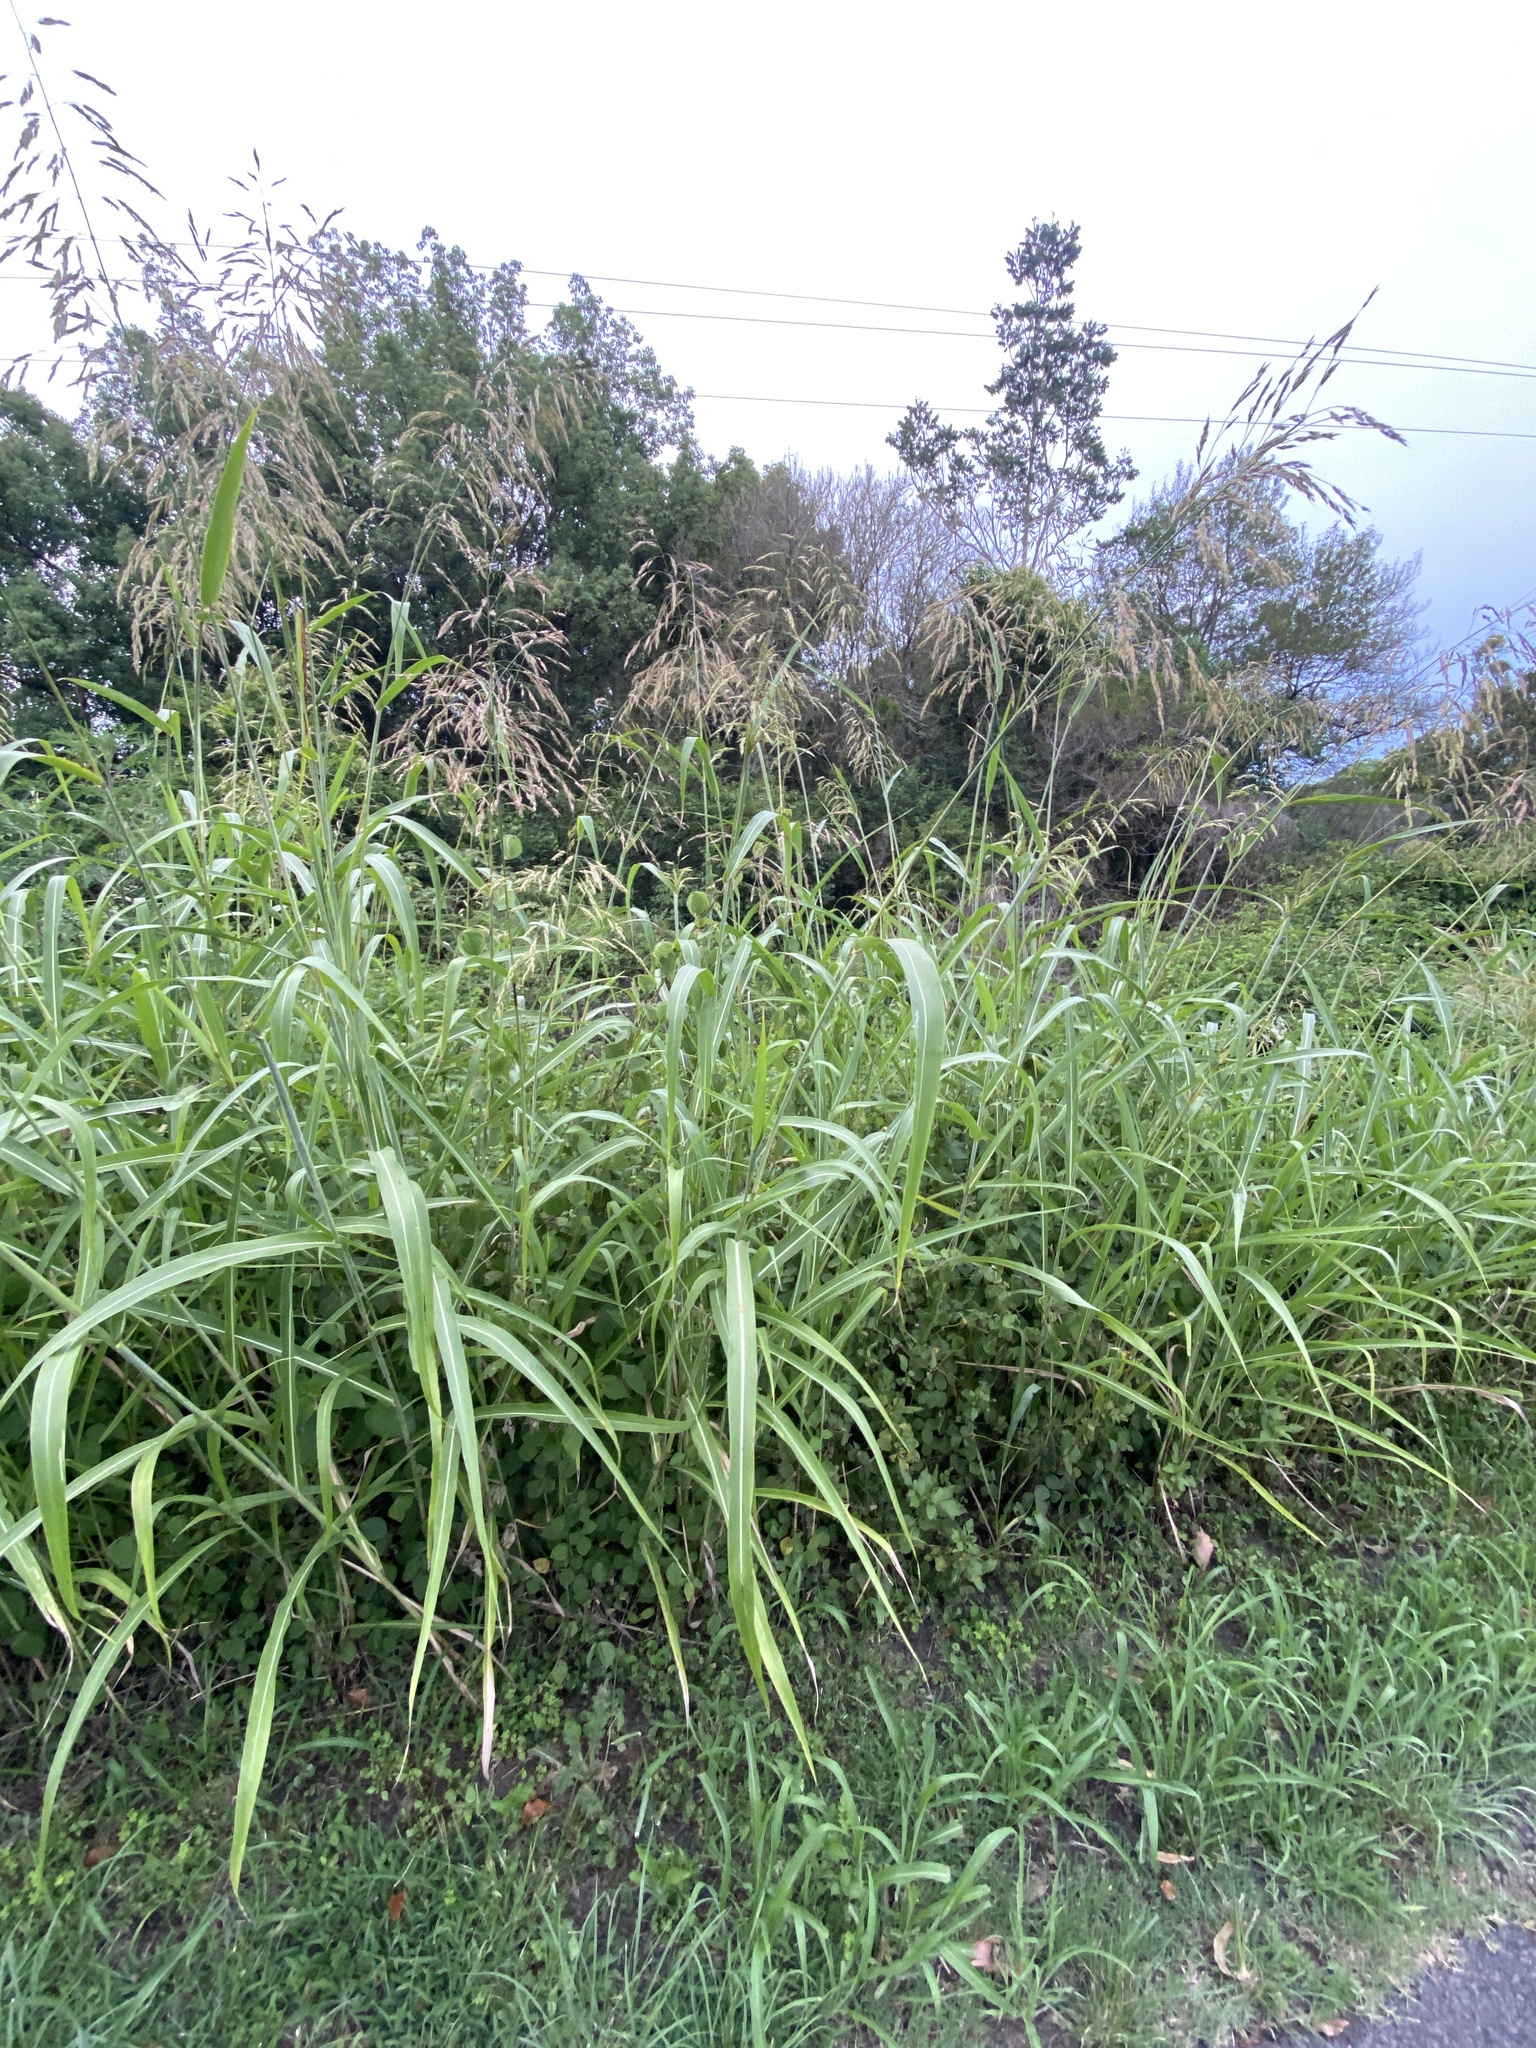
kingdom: Plantae
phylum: Tracheophyta
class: Liliopsida
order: Poales
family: Poaceae
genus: Sorghum
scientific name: Sorghum halepense
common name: Johnson-grass
